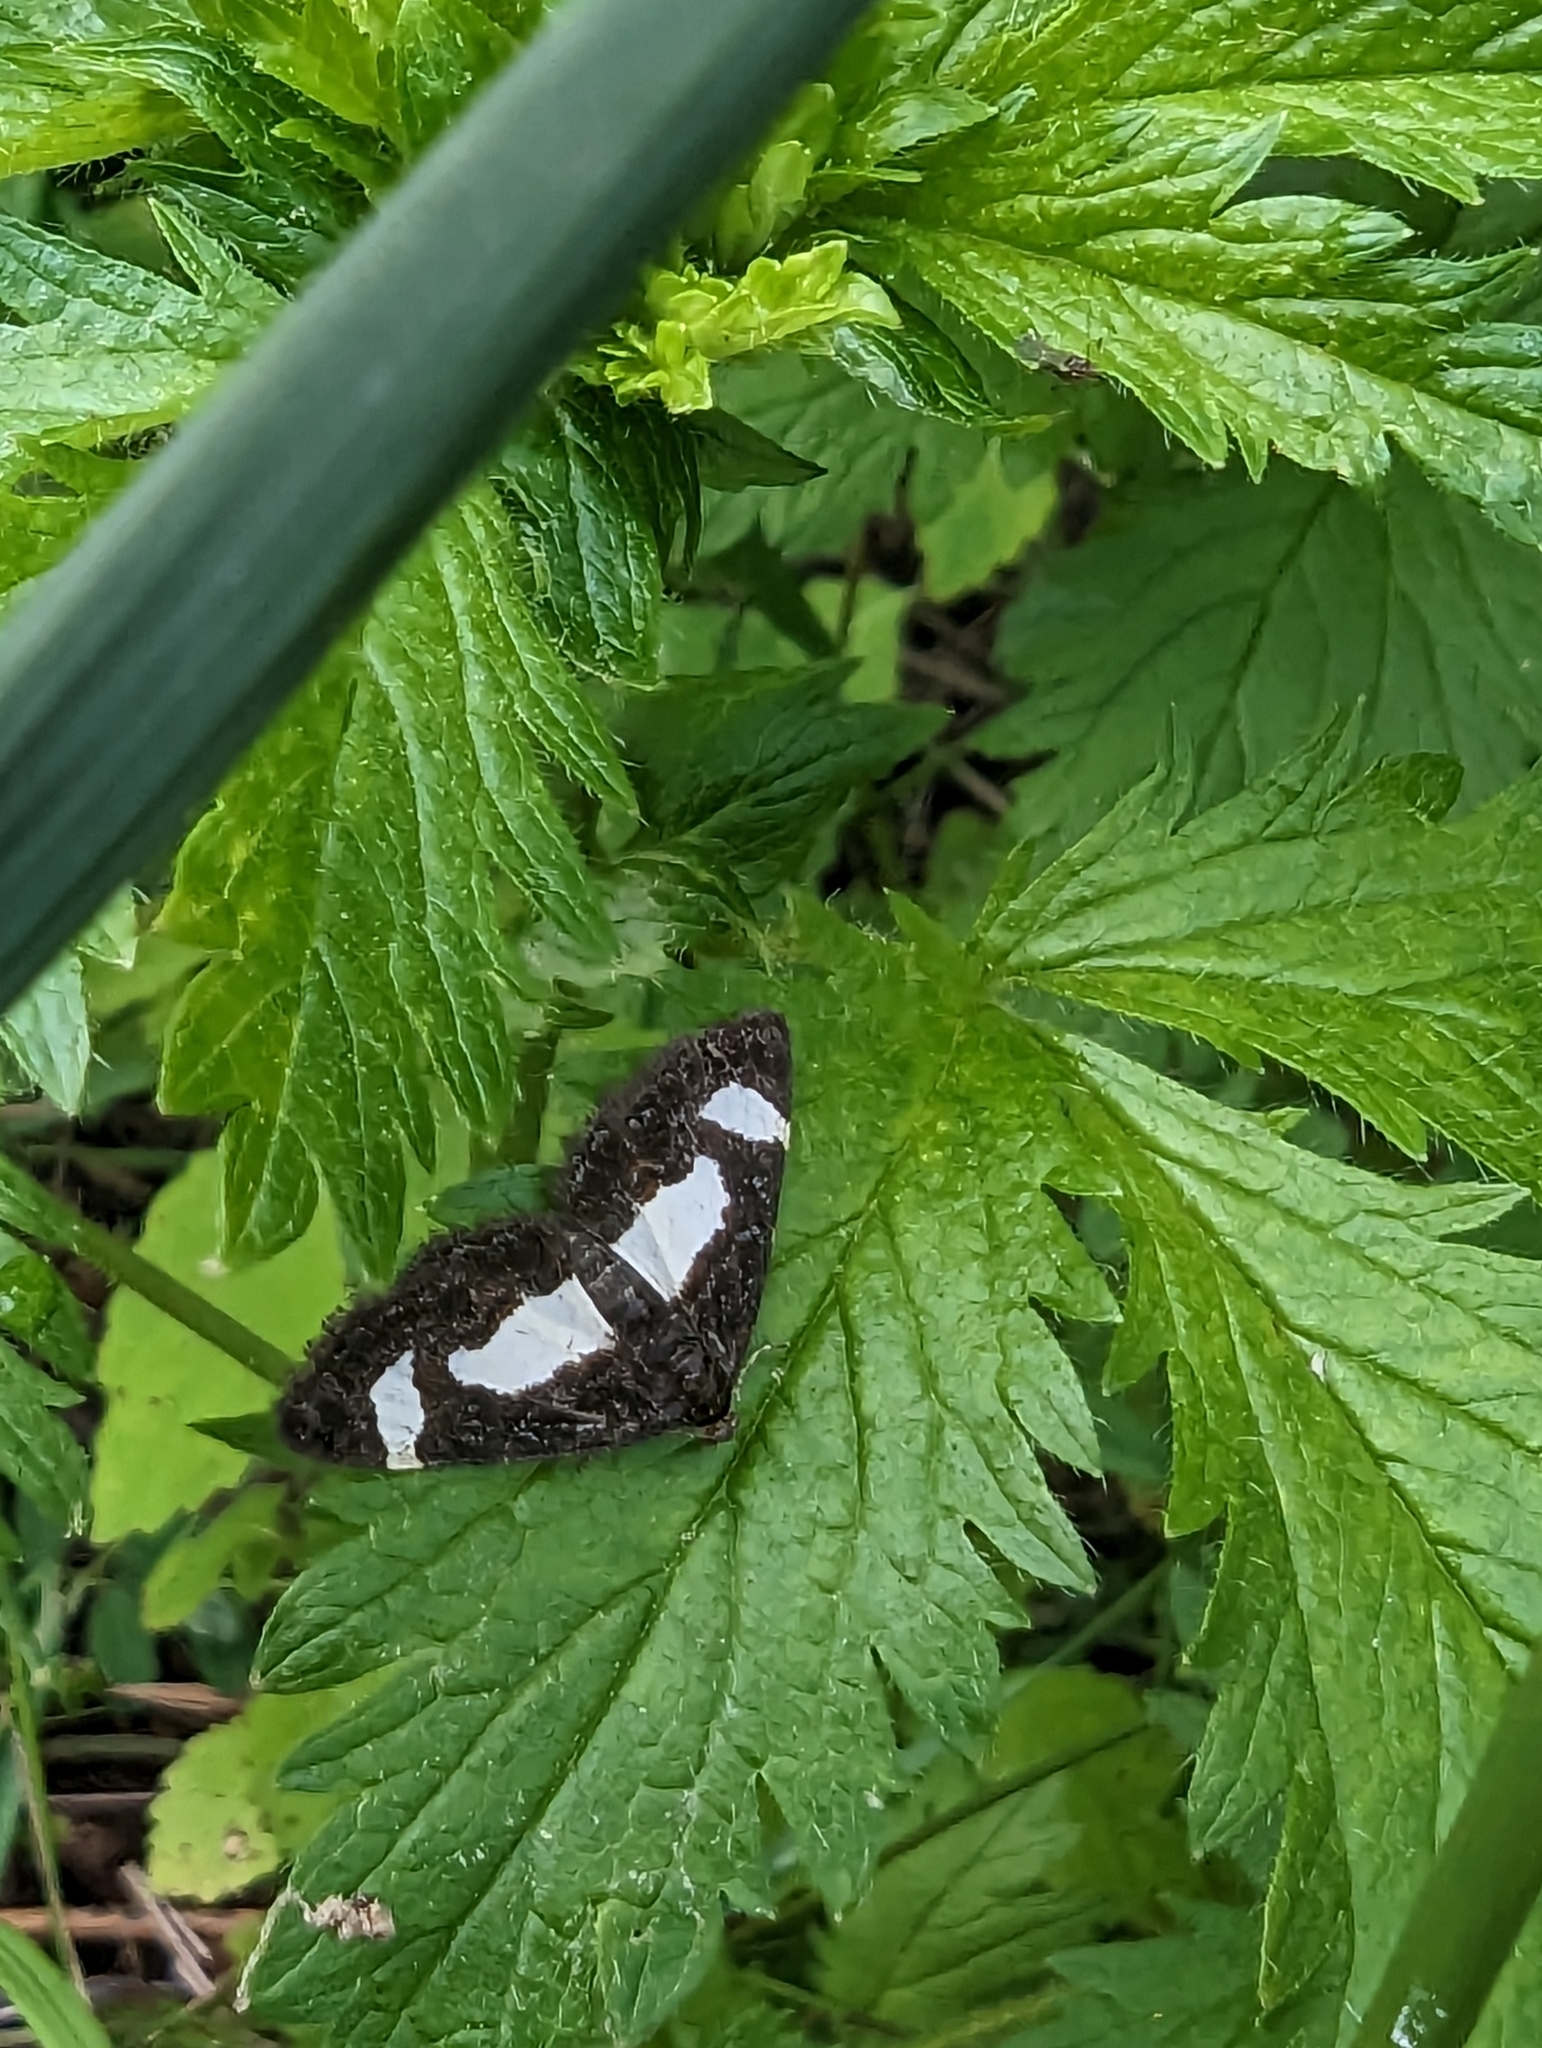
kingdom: Animalia
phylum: Arthropoda
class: Insecta
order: Lepidoptera
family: Geometridae
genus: Heliomata
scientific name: Heliomata cycladata
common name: Common spring moth
